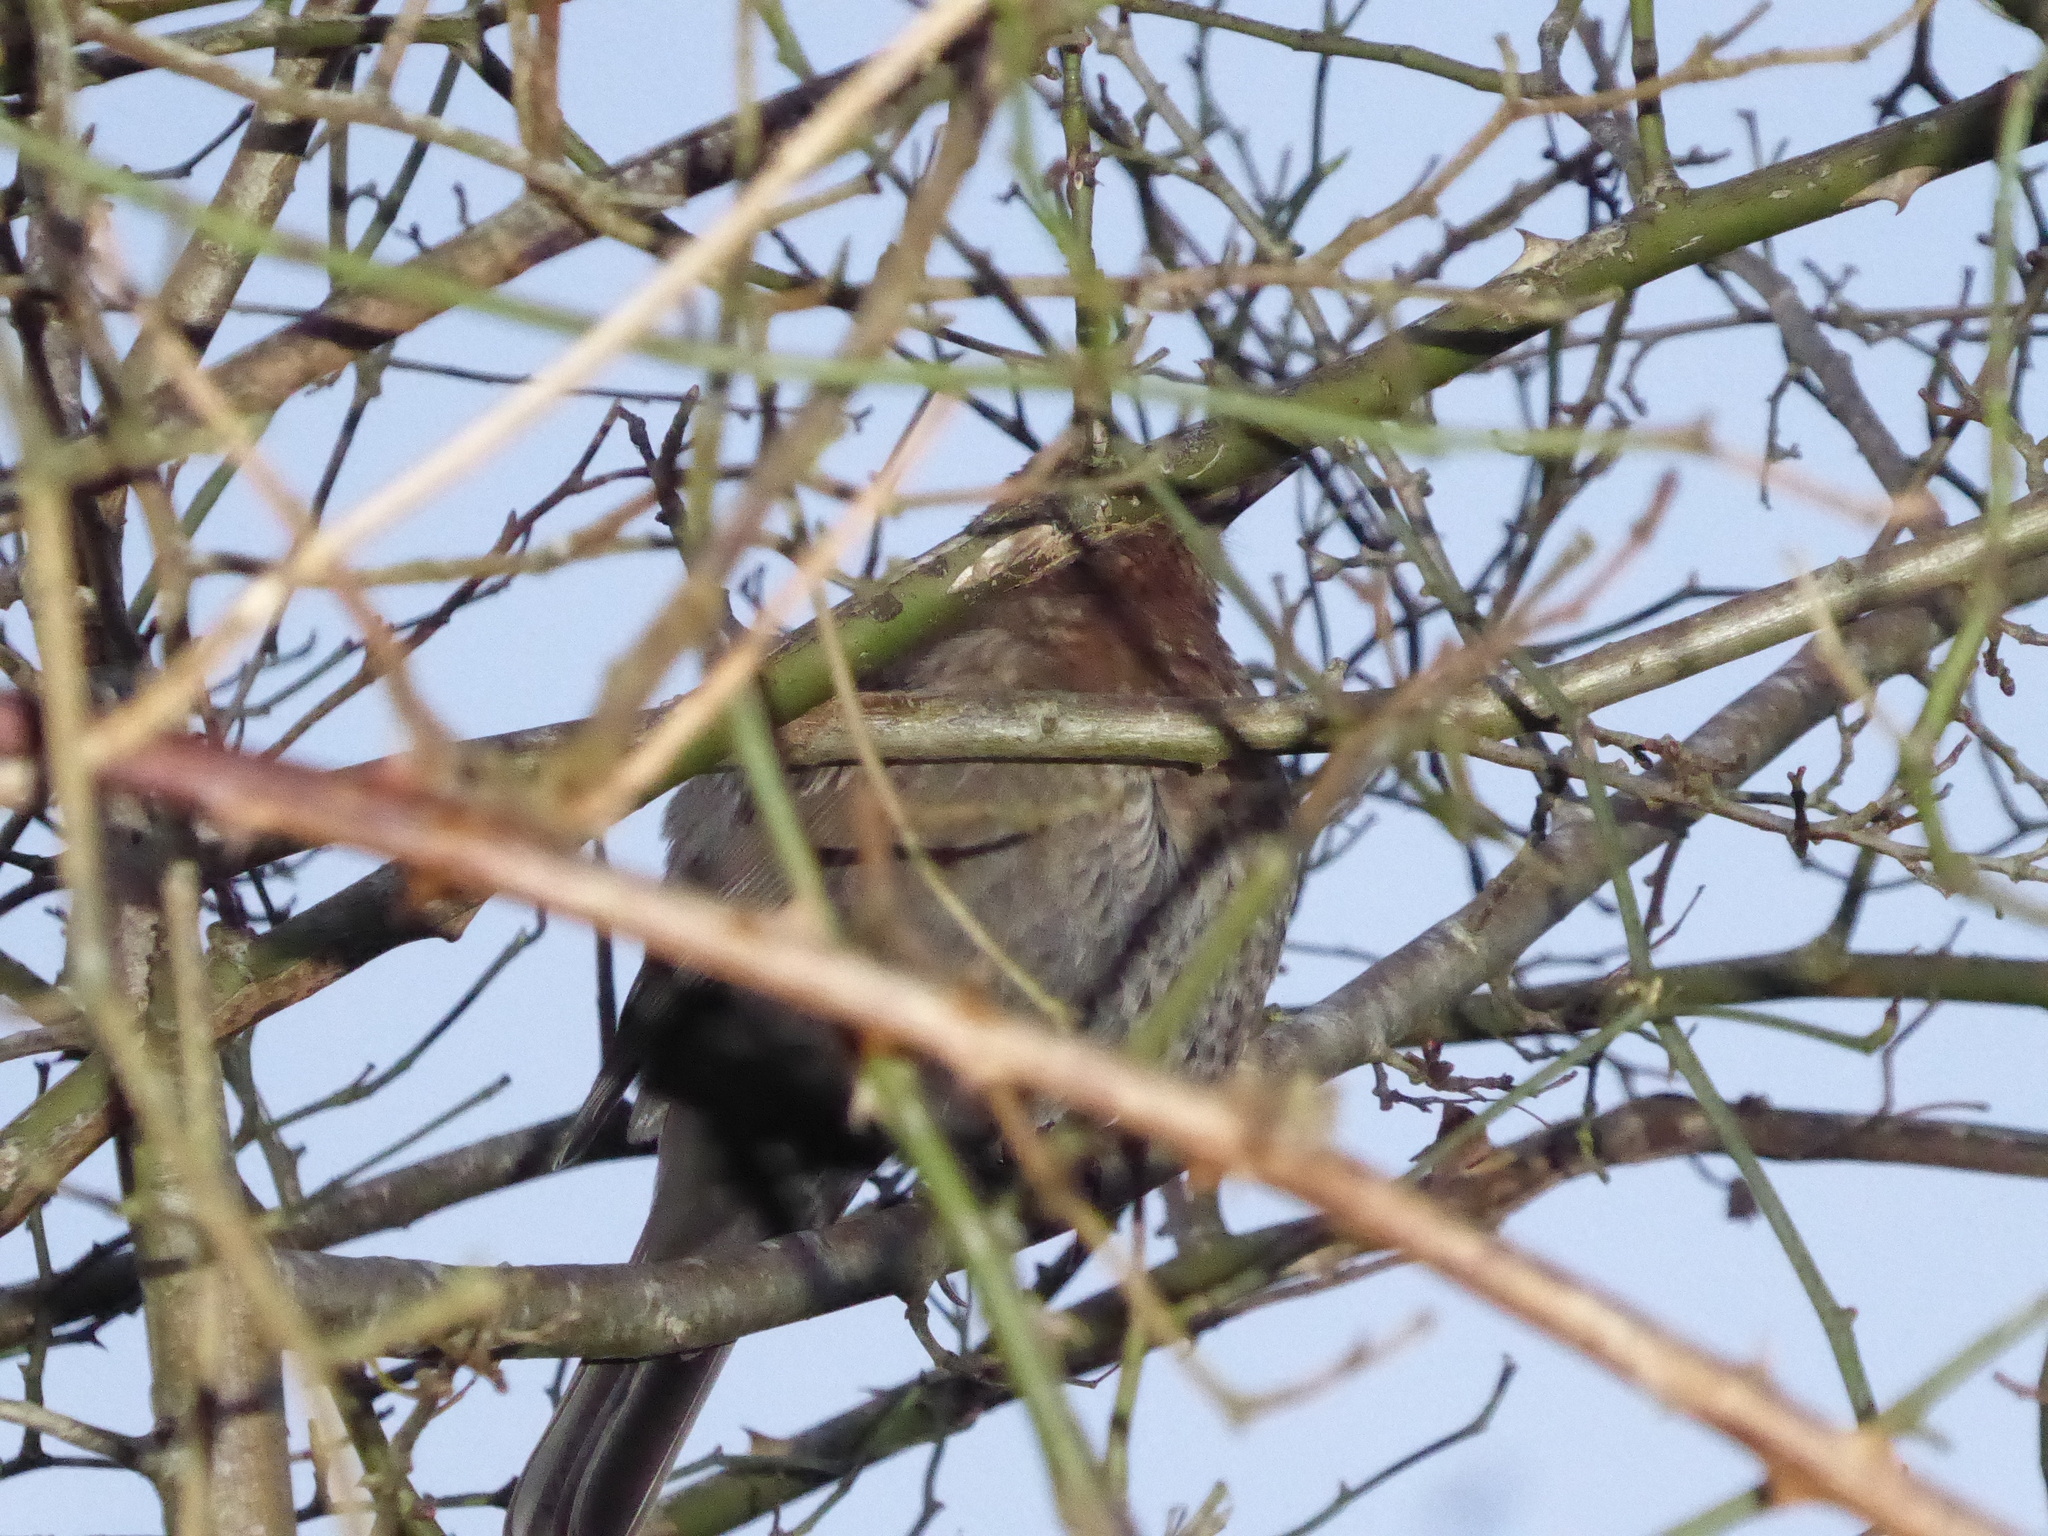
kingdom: Animalia
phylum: Chordata
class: Aves
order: Passeriformes
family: Turdidae
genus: Turdus
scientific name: Turdus merula
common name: Common blackbird
